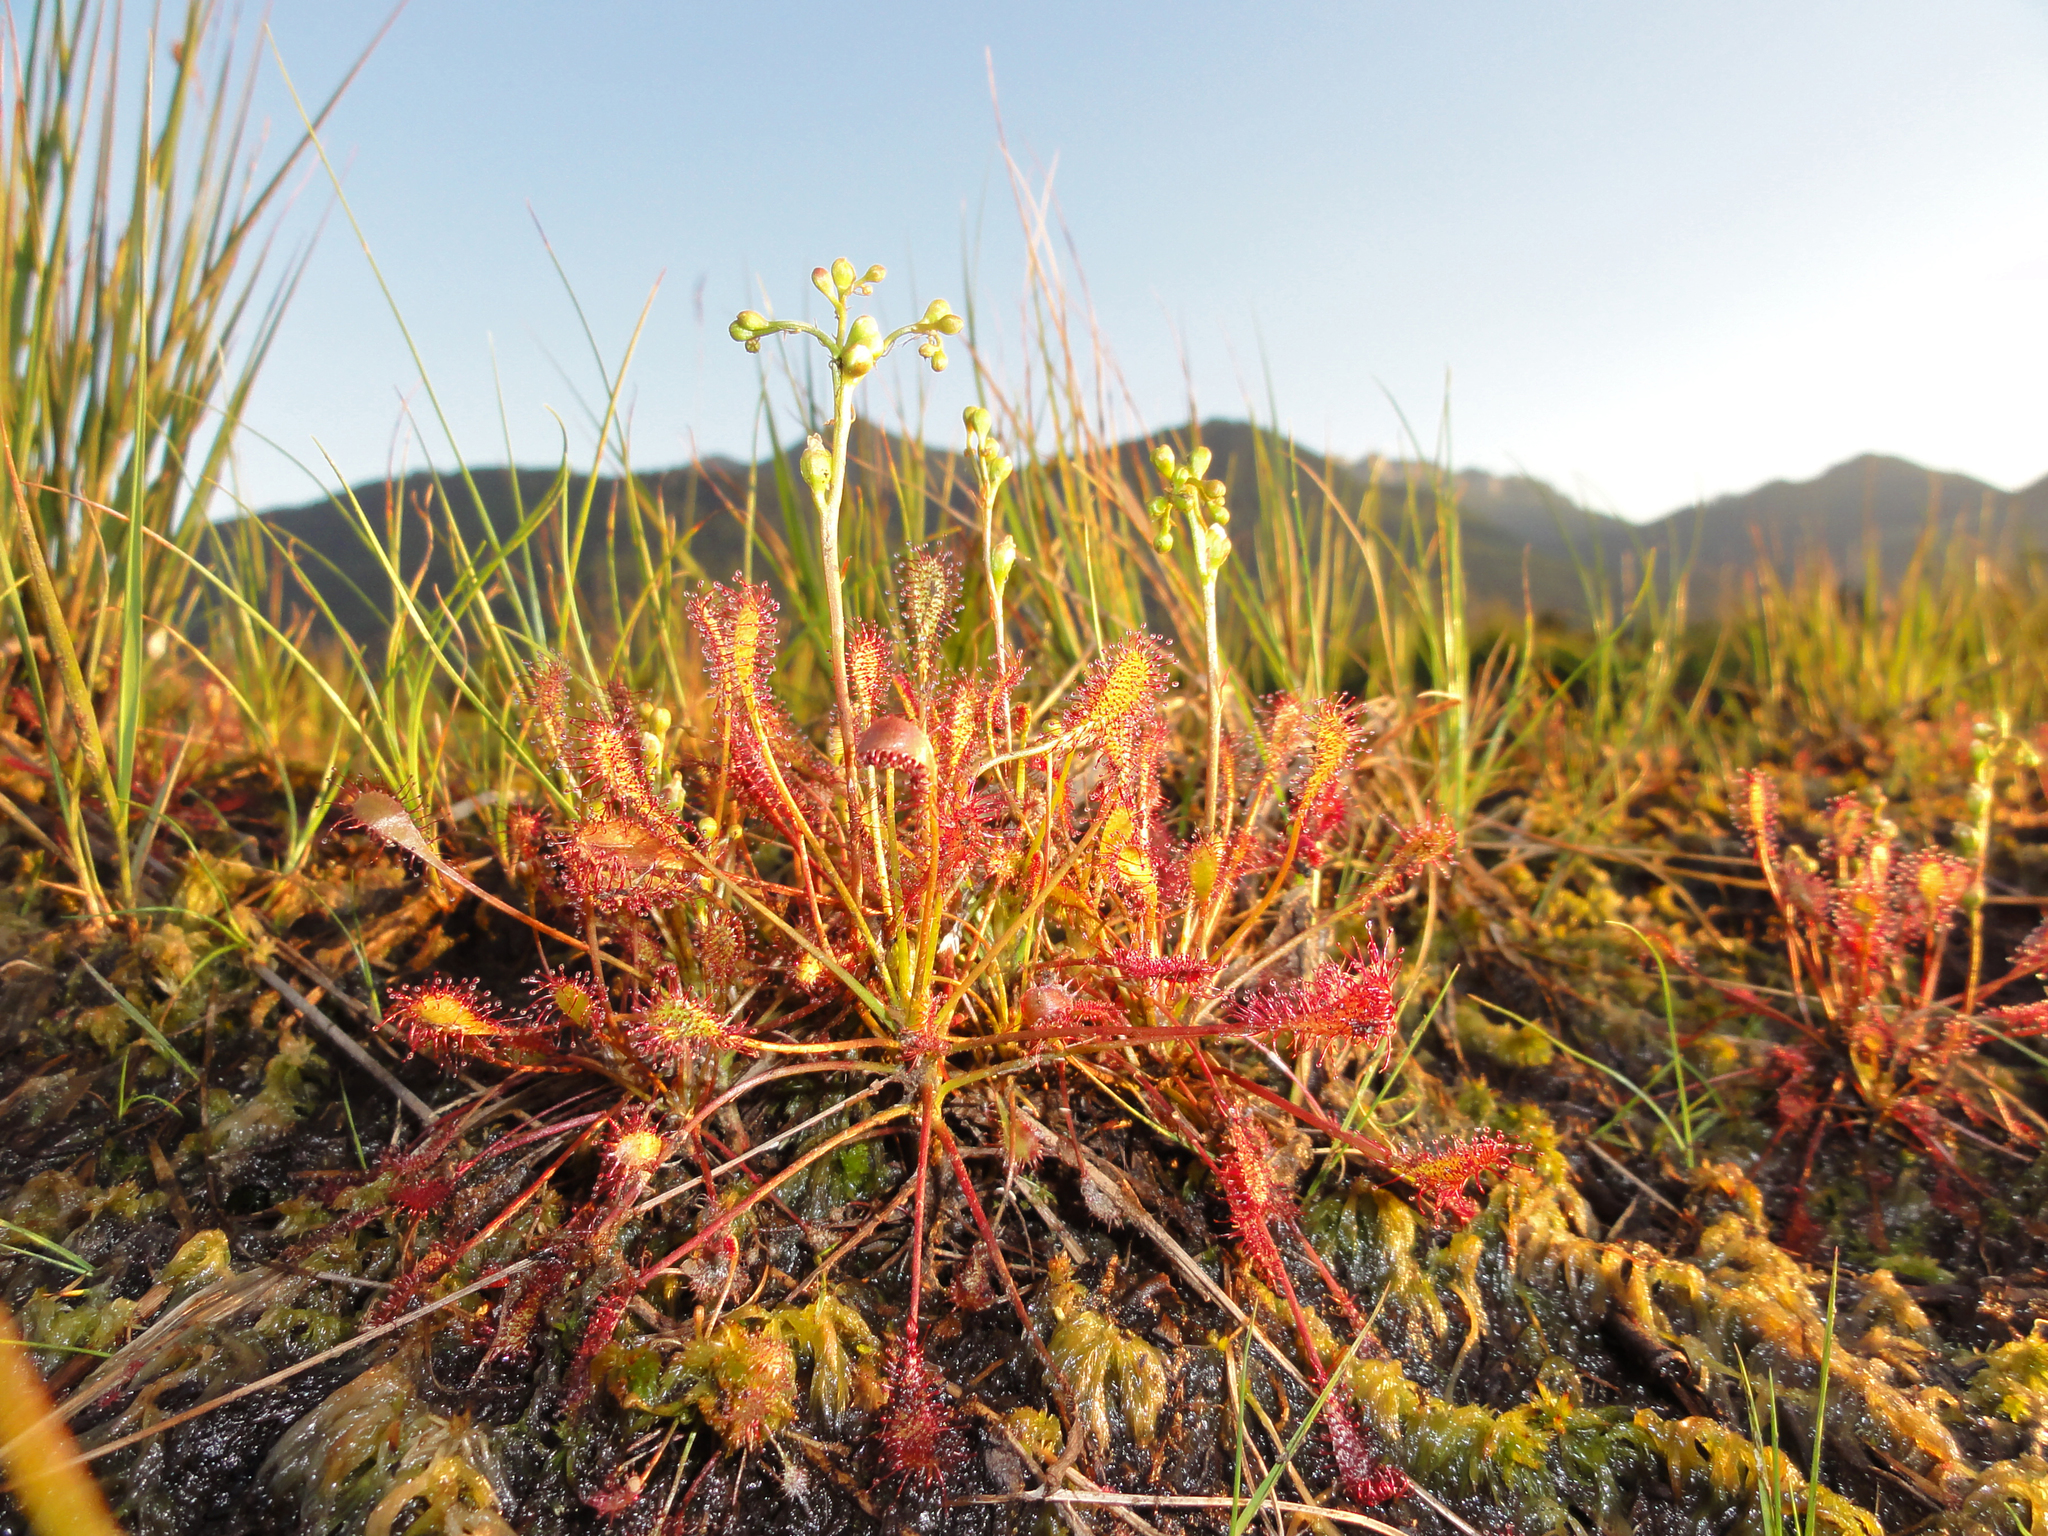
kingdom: Plantae
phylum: Tracheophyta
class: Magnoliopsida
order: Caryophyllales
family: Droseraceae
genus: Drosera
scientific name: Drosera intermedia
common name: Oblong-leaved sundew
